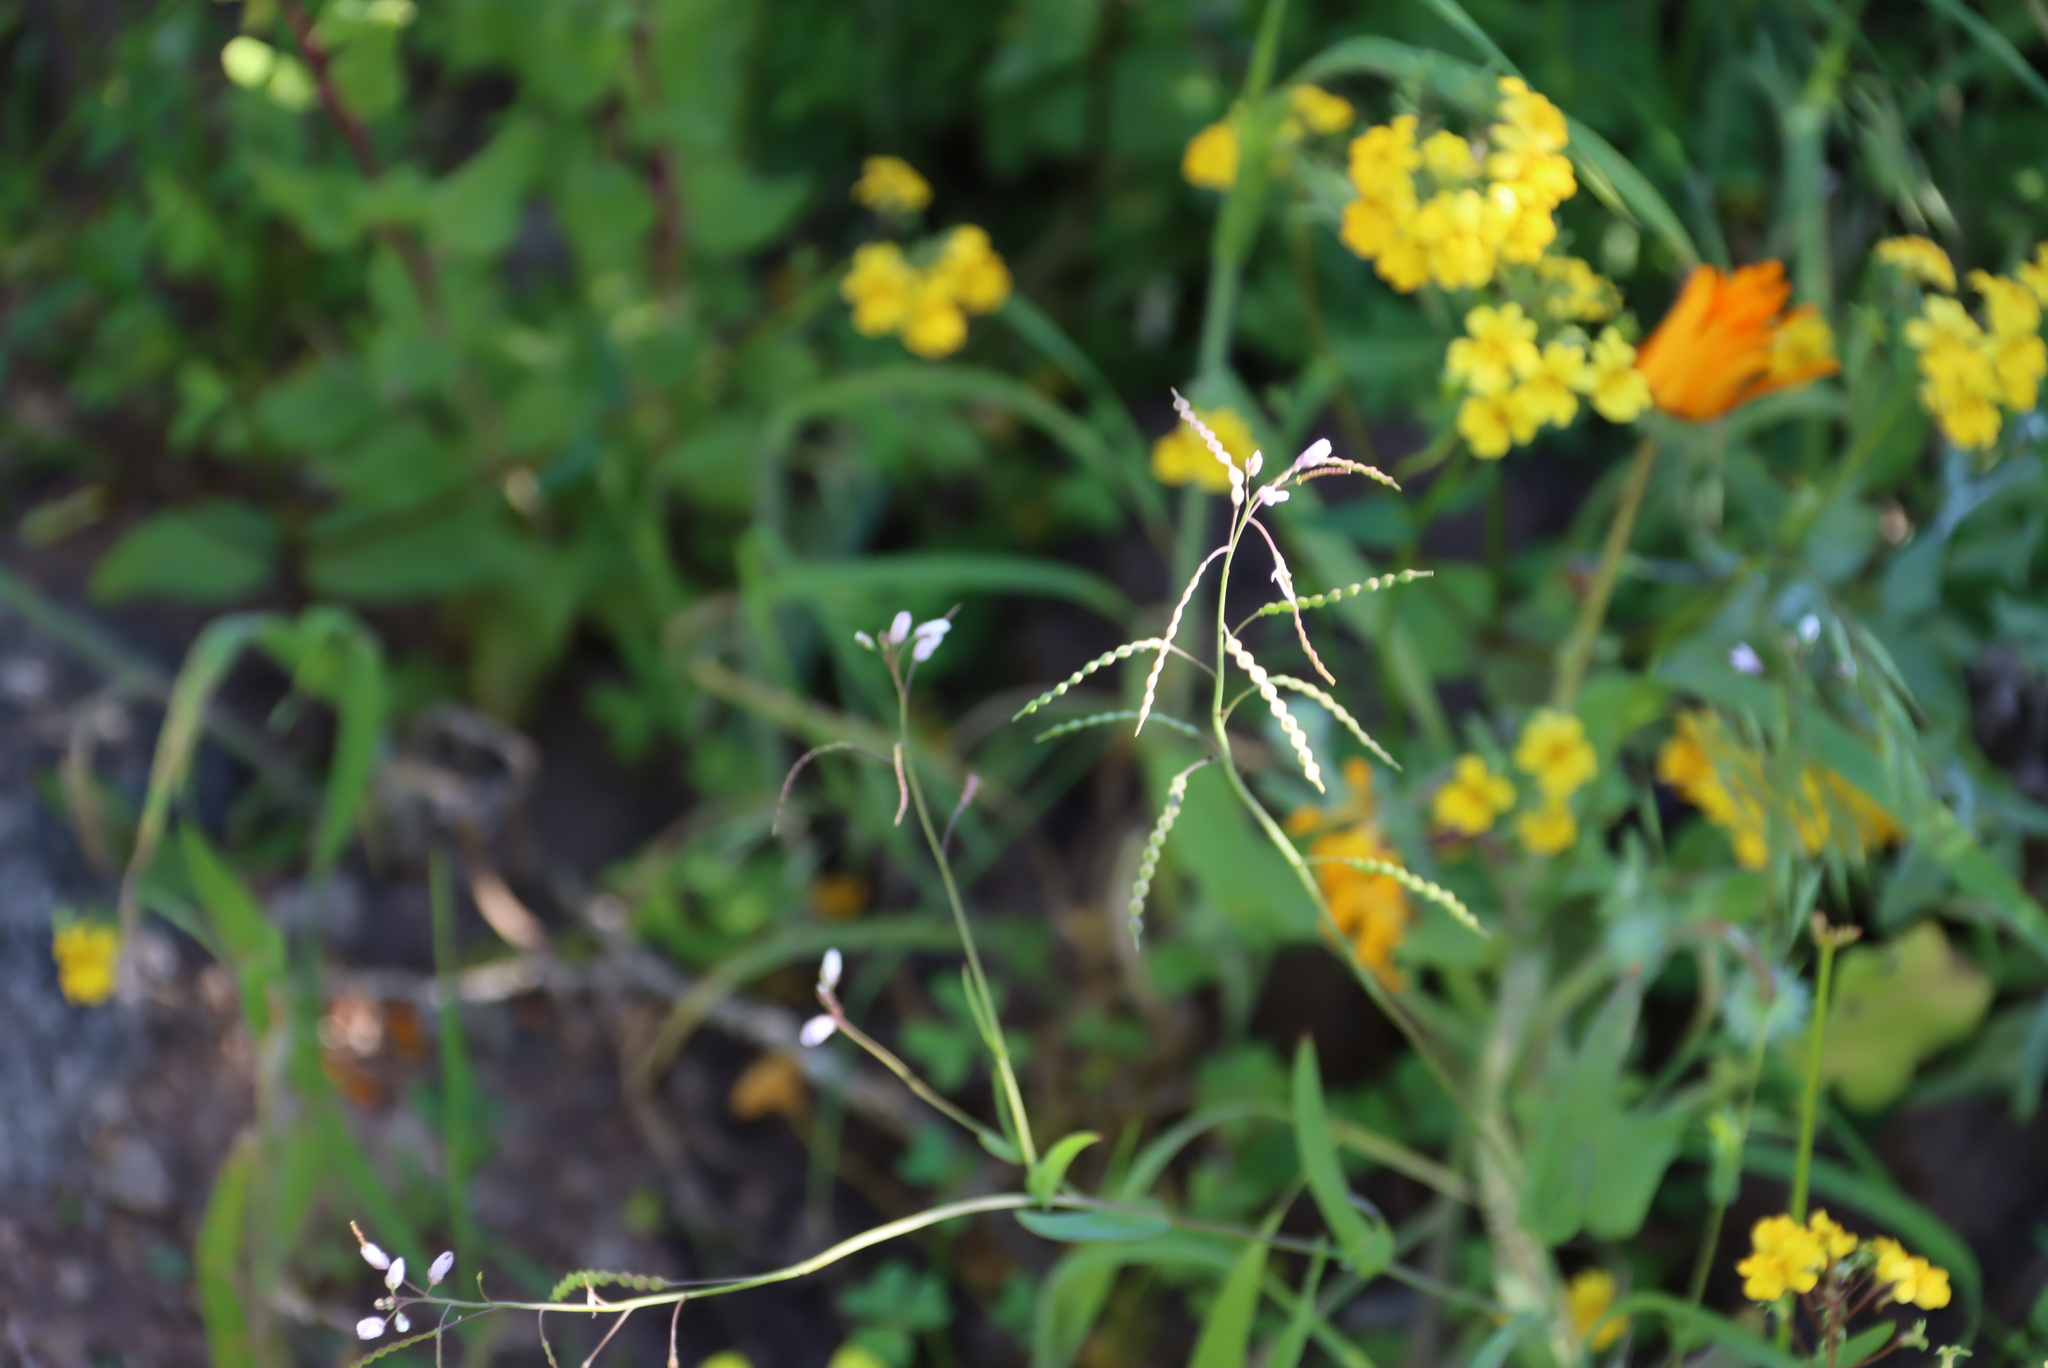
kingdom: Plantae
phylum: Tracheophyta
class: Magnoliopsida
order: Brassicales
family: Brassicaceae
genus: Heliophila
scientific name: Heliophila amplexicaulis
